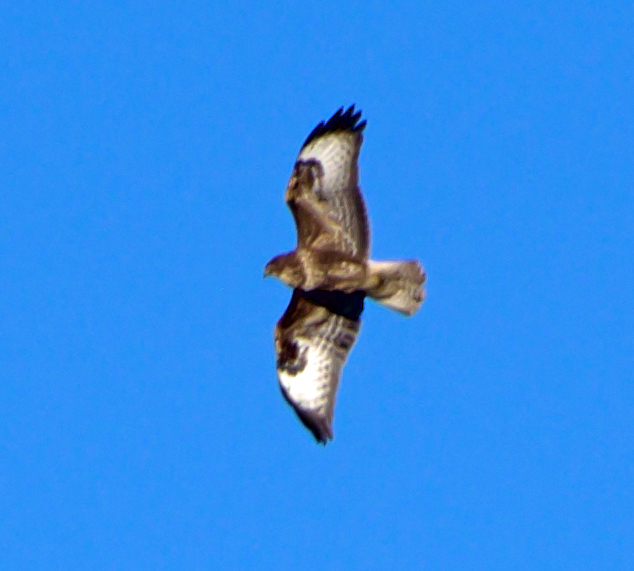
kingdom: Animalia
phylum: Chordata
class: Aves
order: Accipitriformes
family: Accipitridae
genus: Buteo
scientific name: Buteo buteo
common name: Common buzzard
